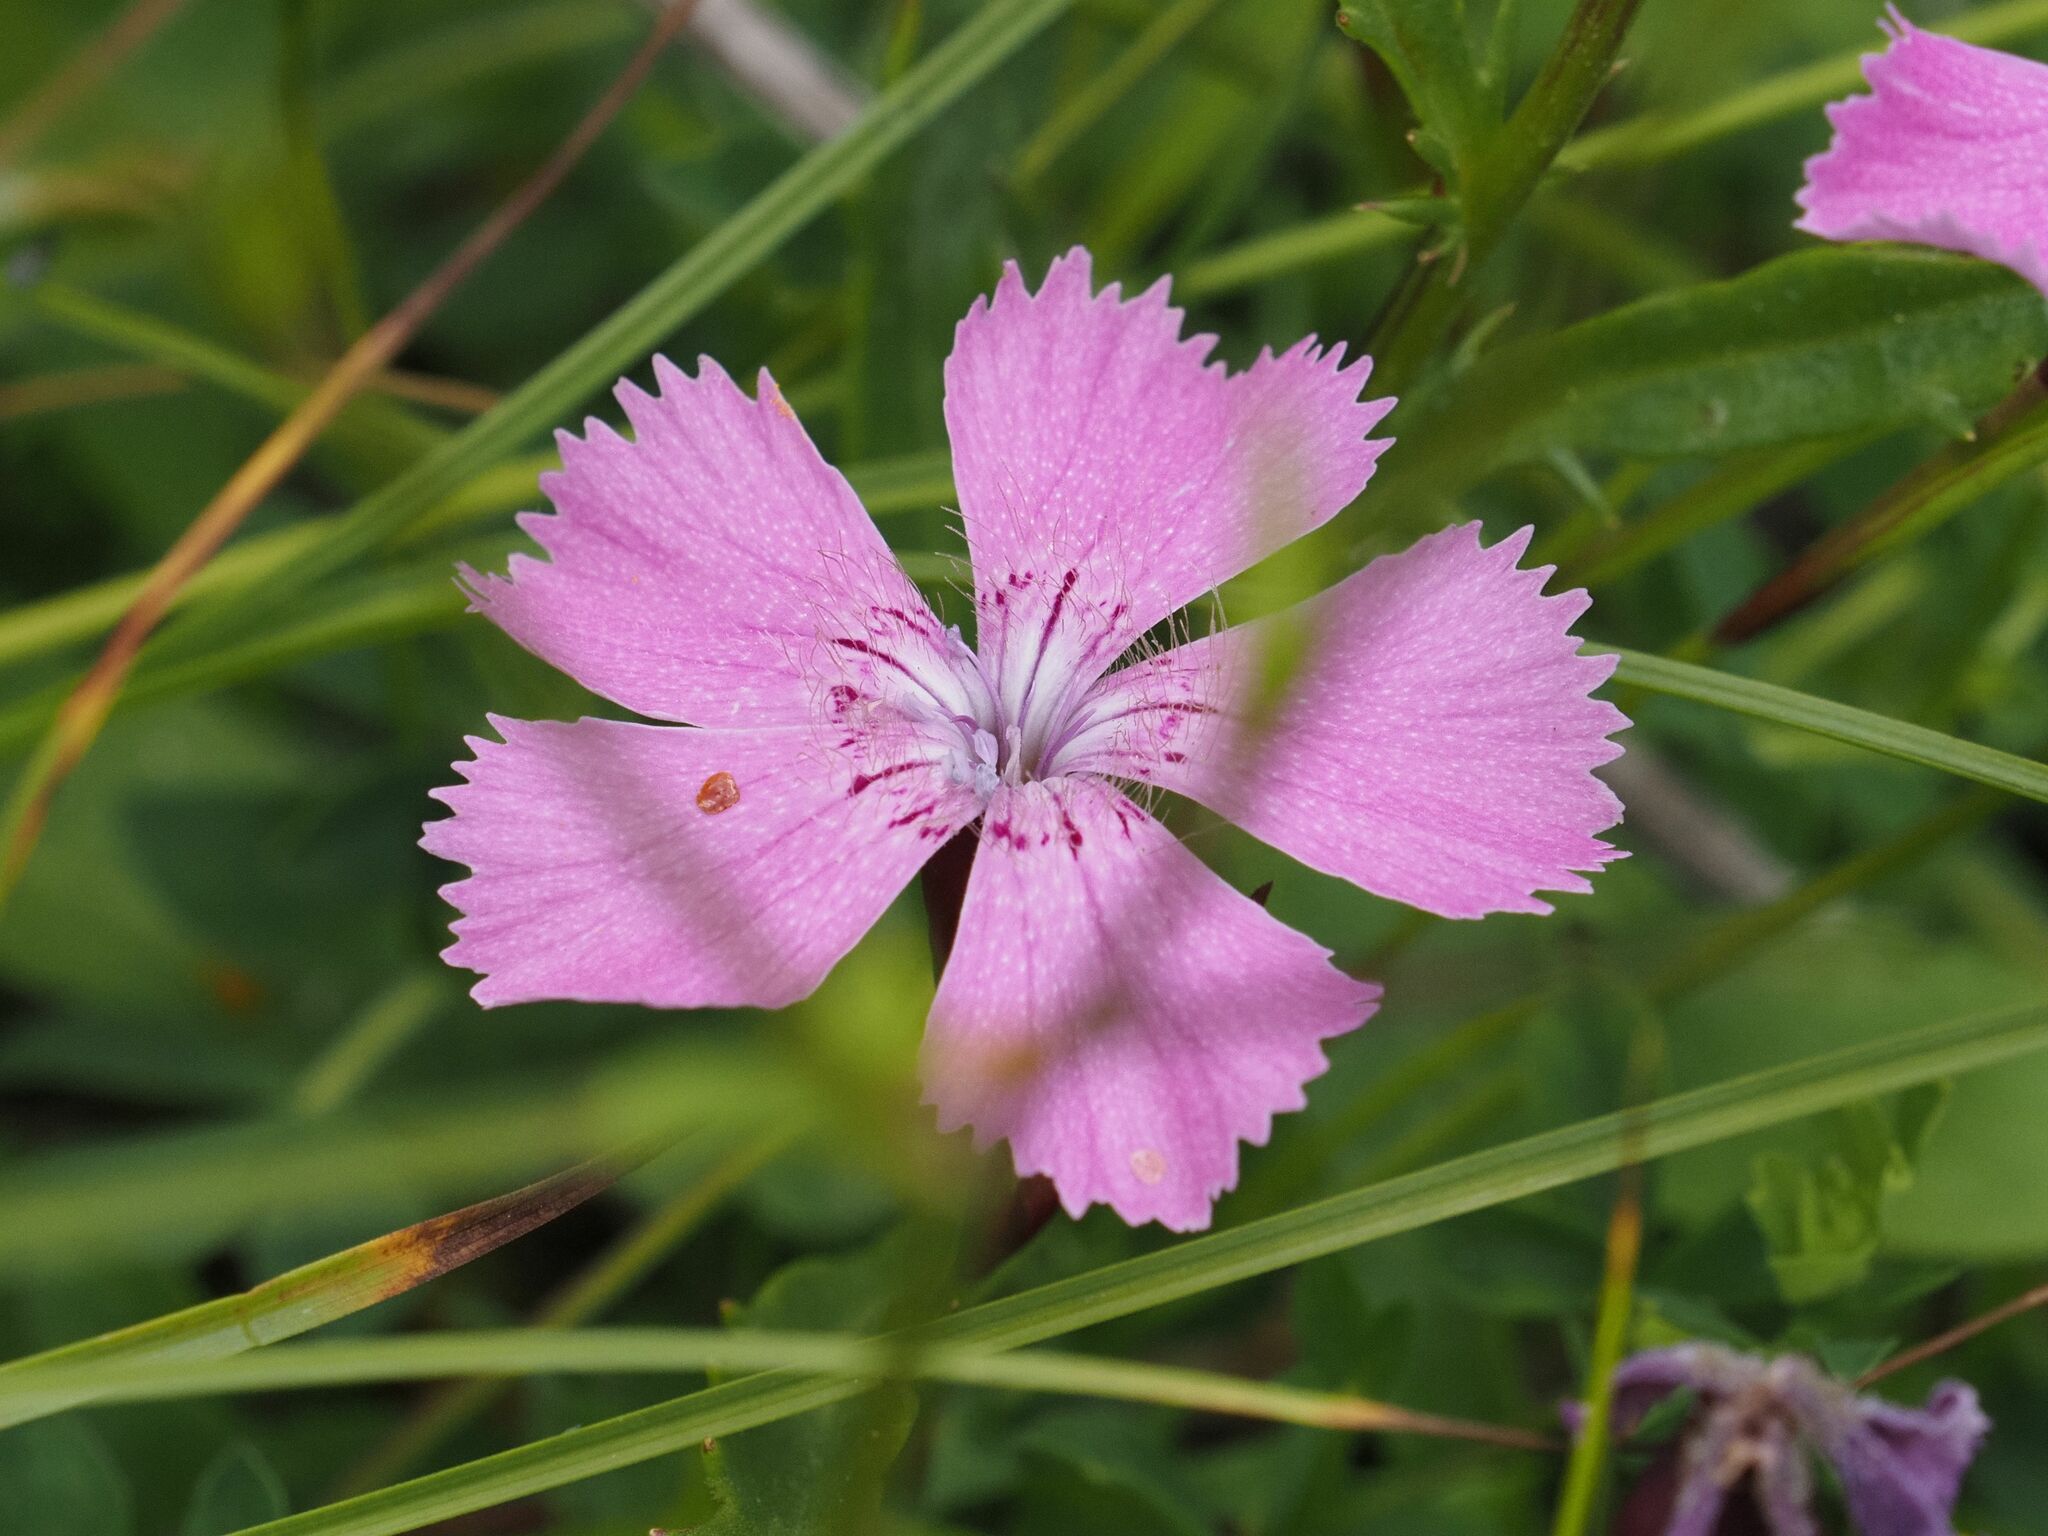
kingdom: Plantae
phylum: Tracheophyta
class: Magnoliopsida
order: Caryophyllales
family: Caryophyllaceae
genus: Dianthus
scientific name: Dianthus alpinus
